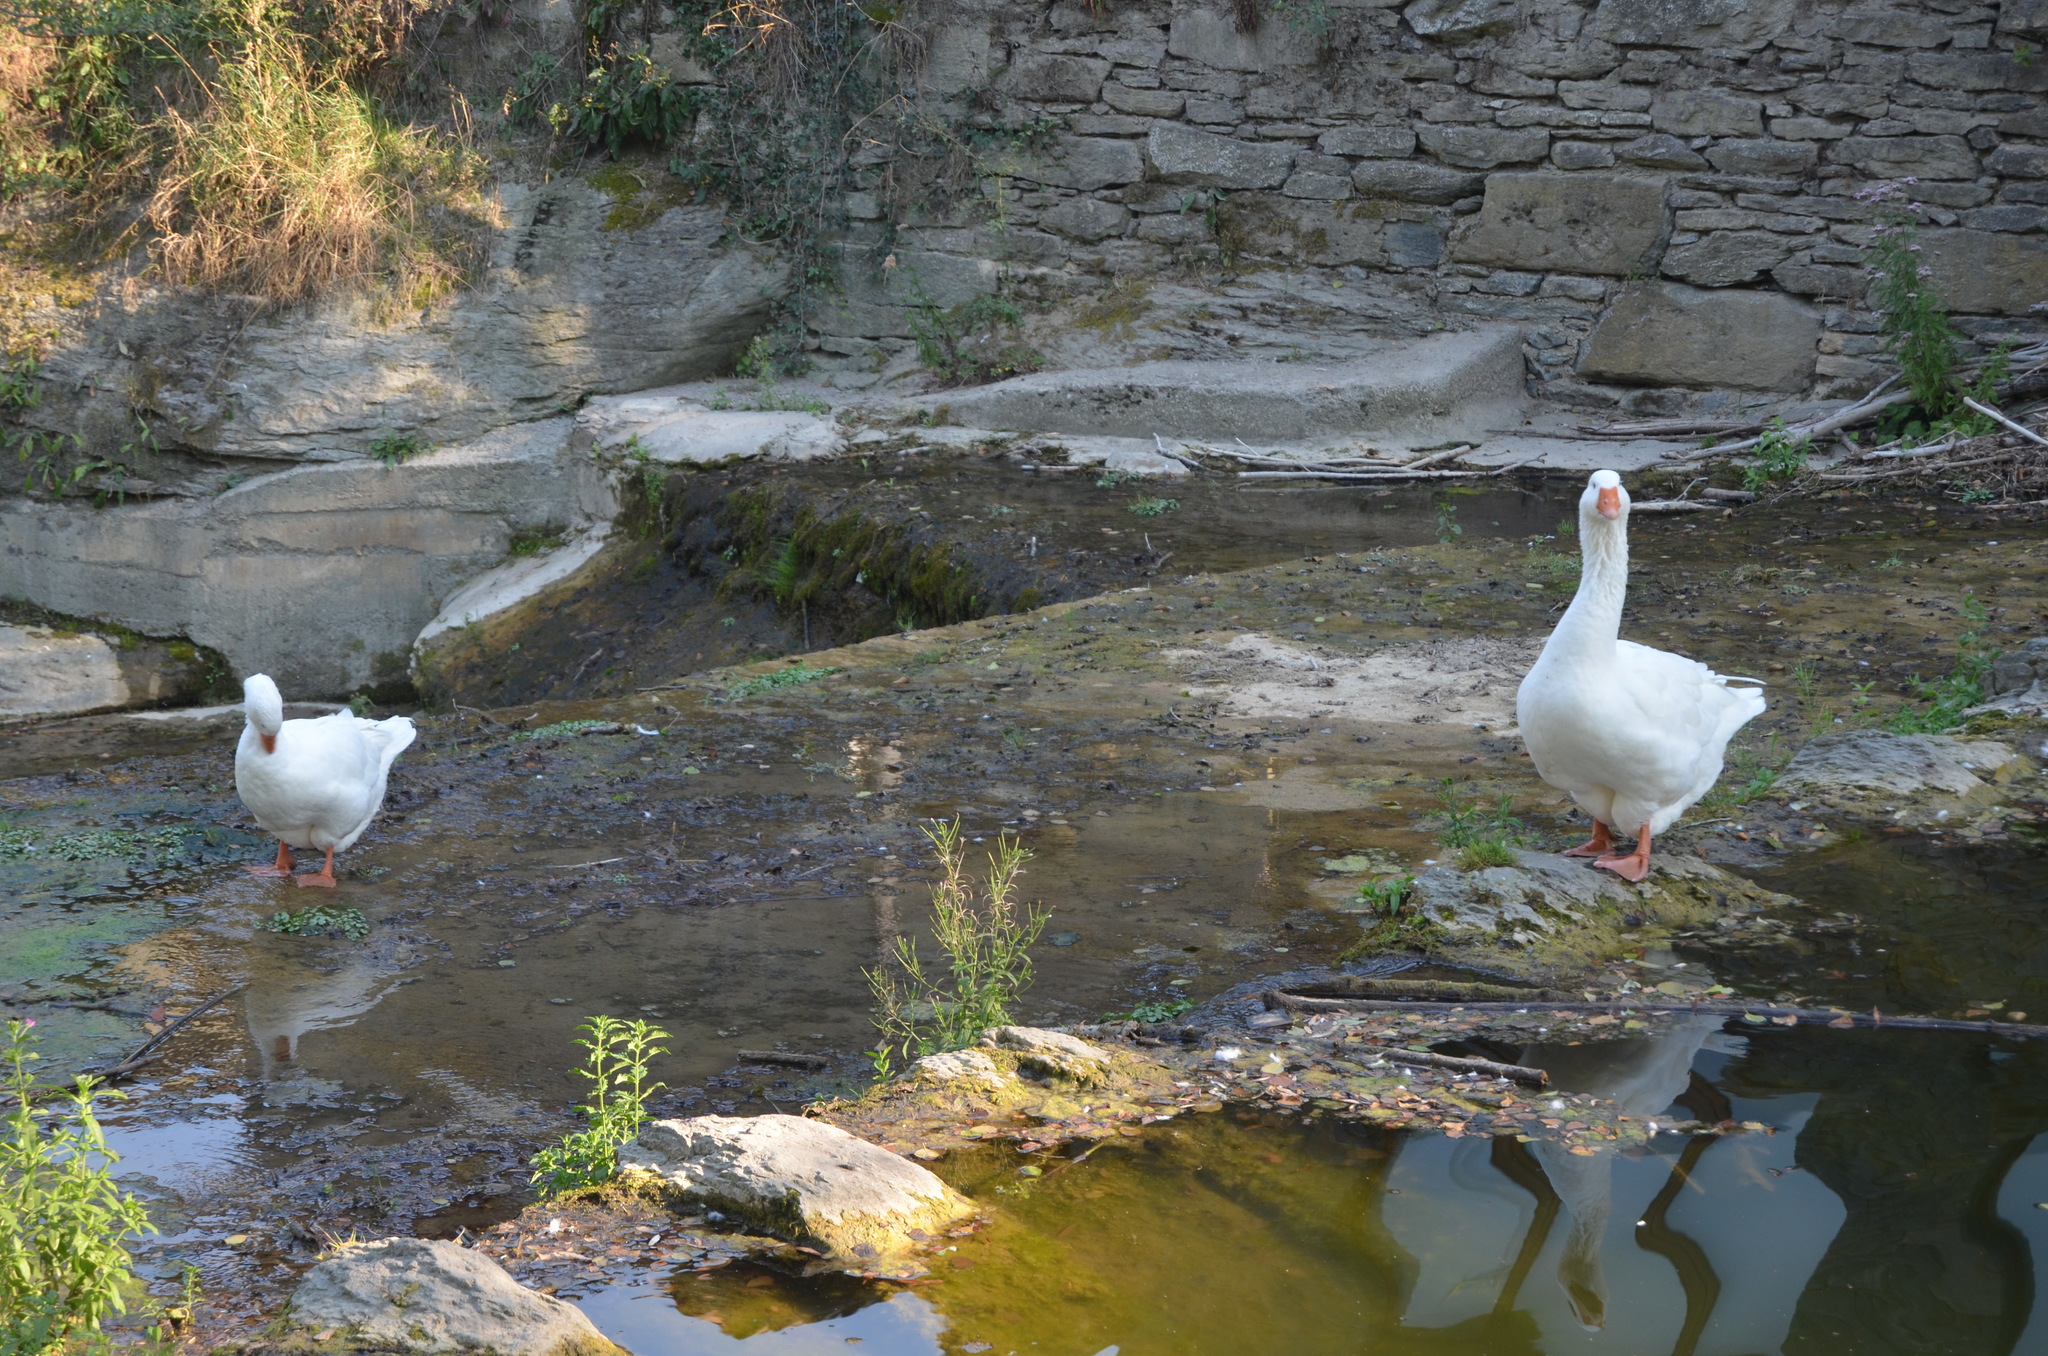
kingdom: Animalia
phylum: Chordata
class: Aves
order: Anseriformes
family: Anatidae
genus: Anser
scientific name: Anser anser
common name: Greylag goose
